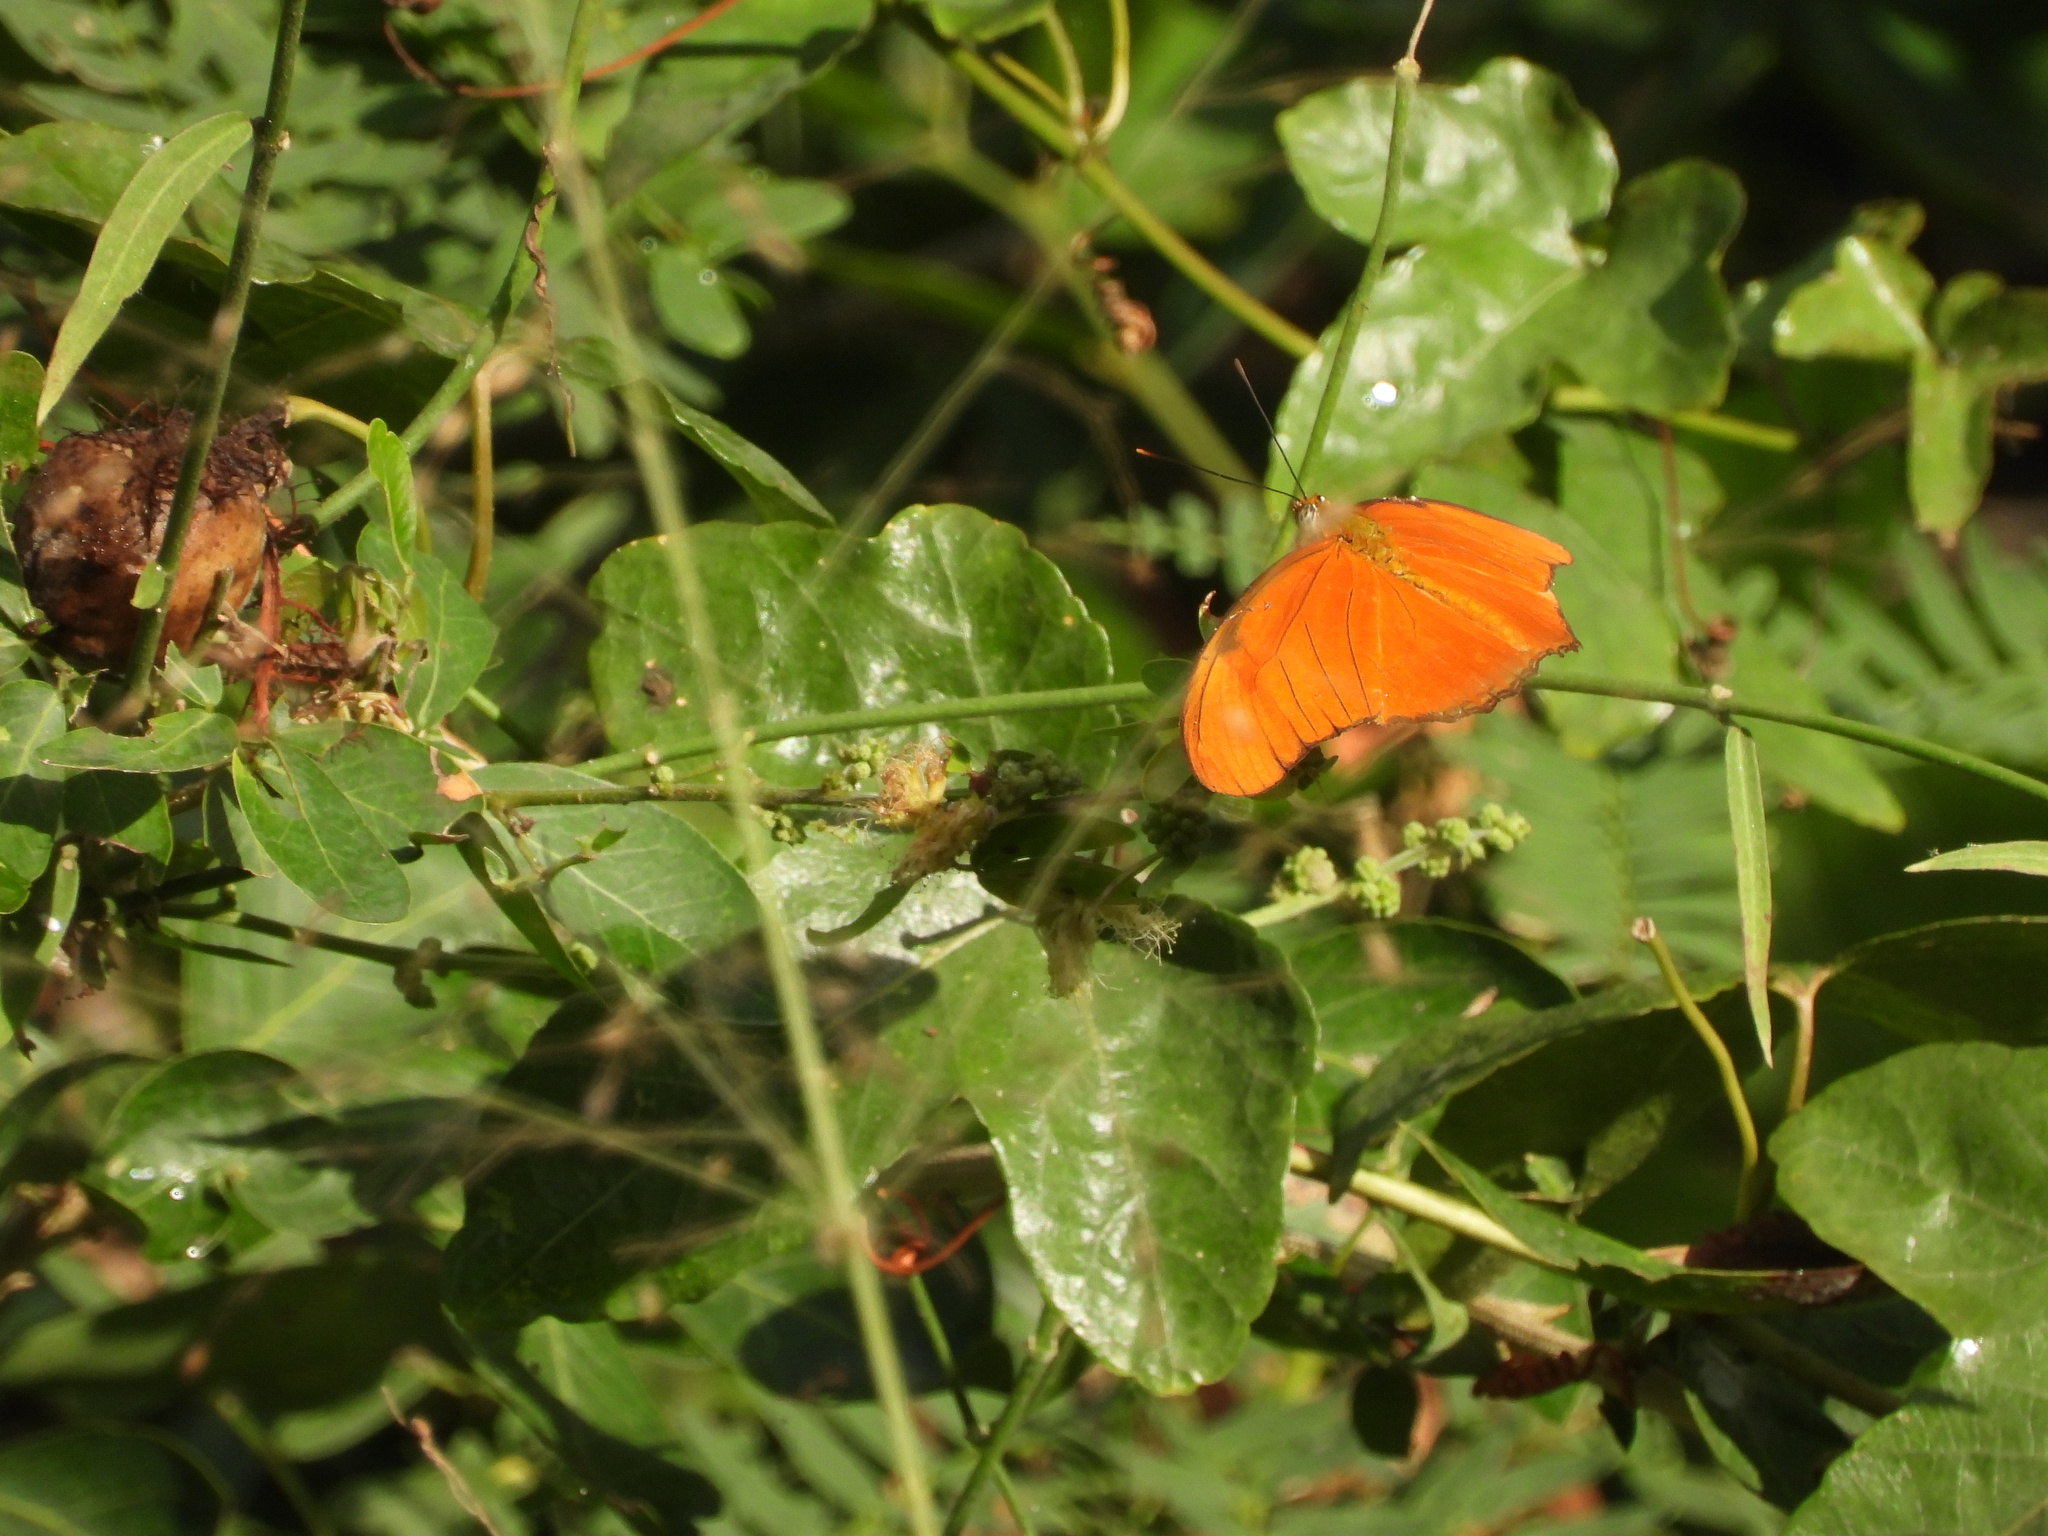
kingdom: Animalia
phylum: Arthropoda
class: Insecta
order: Lepidoptera
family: Nymphalidae
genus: Dryas
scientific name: Dryas iulia
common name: Flambeau
